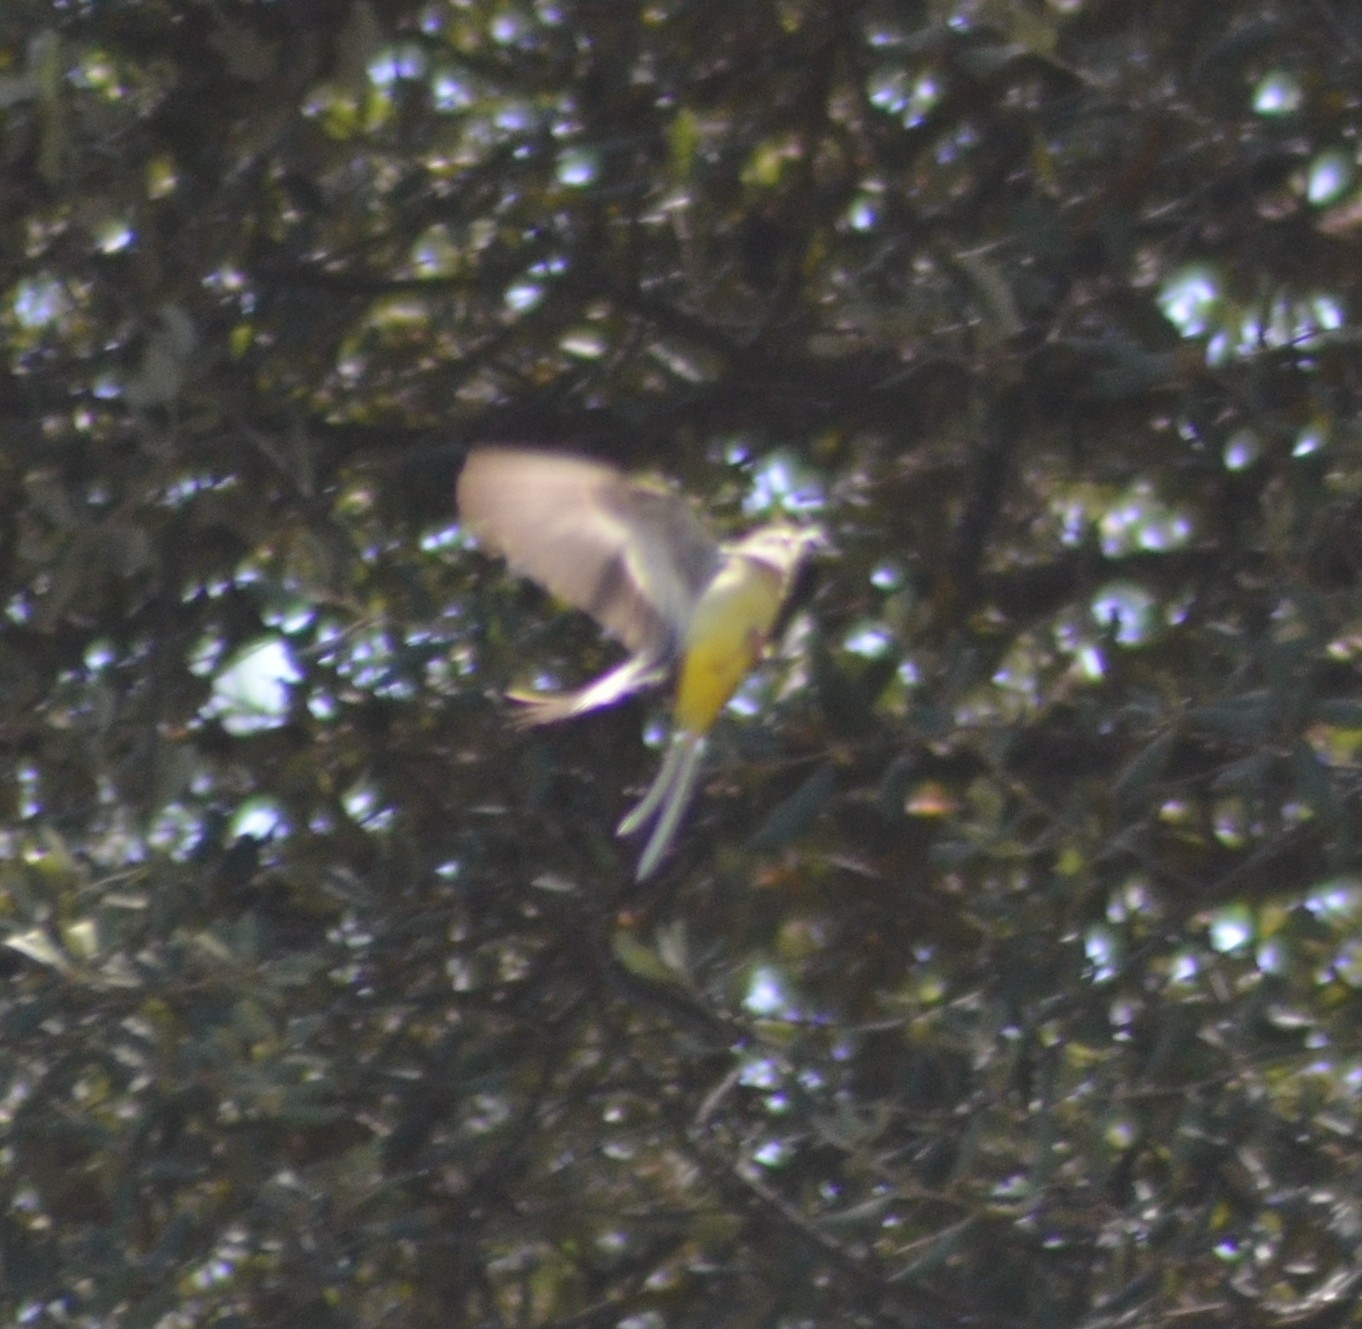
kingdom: Animalia
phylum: Chordata
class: Aves
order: Passeriformes
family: Motacillidae
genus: Motacilla
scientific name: Motacilla cinerea
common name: Grey wagtail
